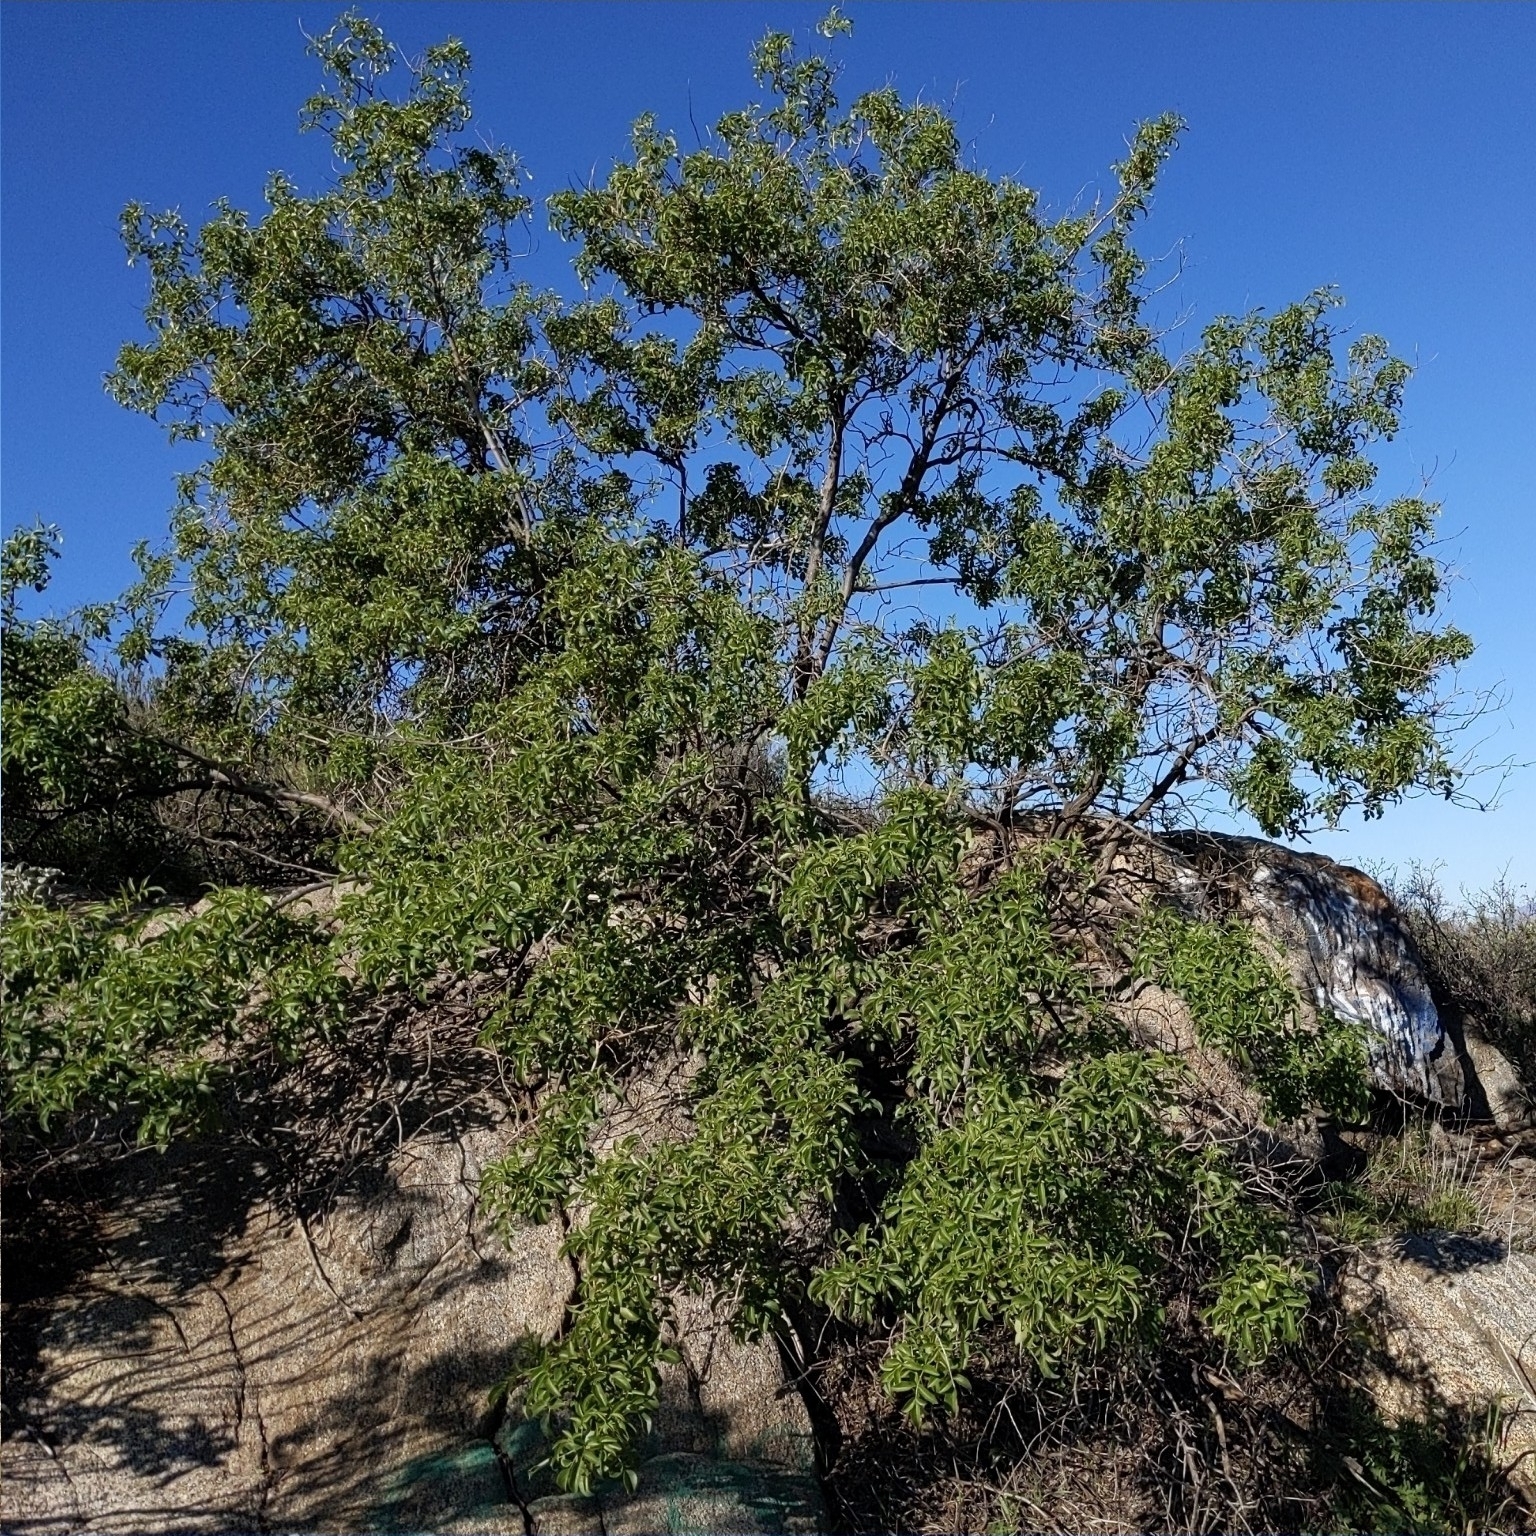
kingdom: Plantae
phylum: Tracheophyta
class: Magnoliopsida
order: Dipsacales
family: Viburnaceae
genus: Sambucus
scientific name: Sambucus cerulea
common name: Blue elder
